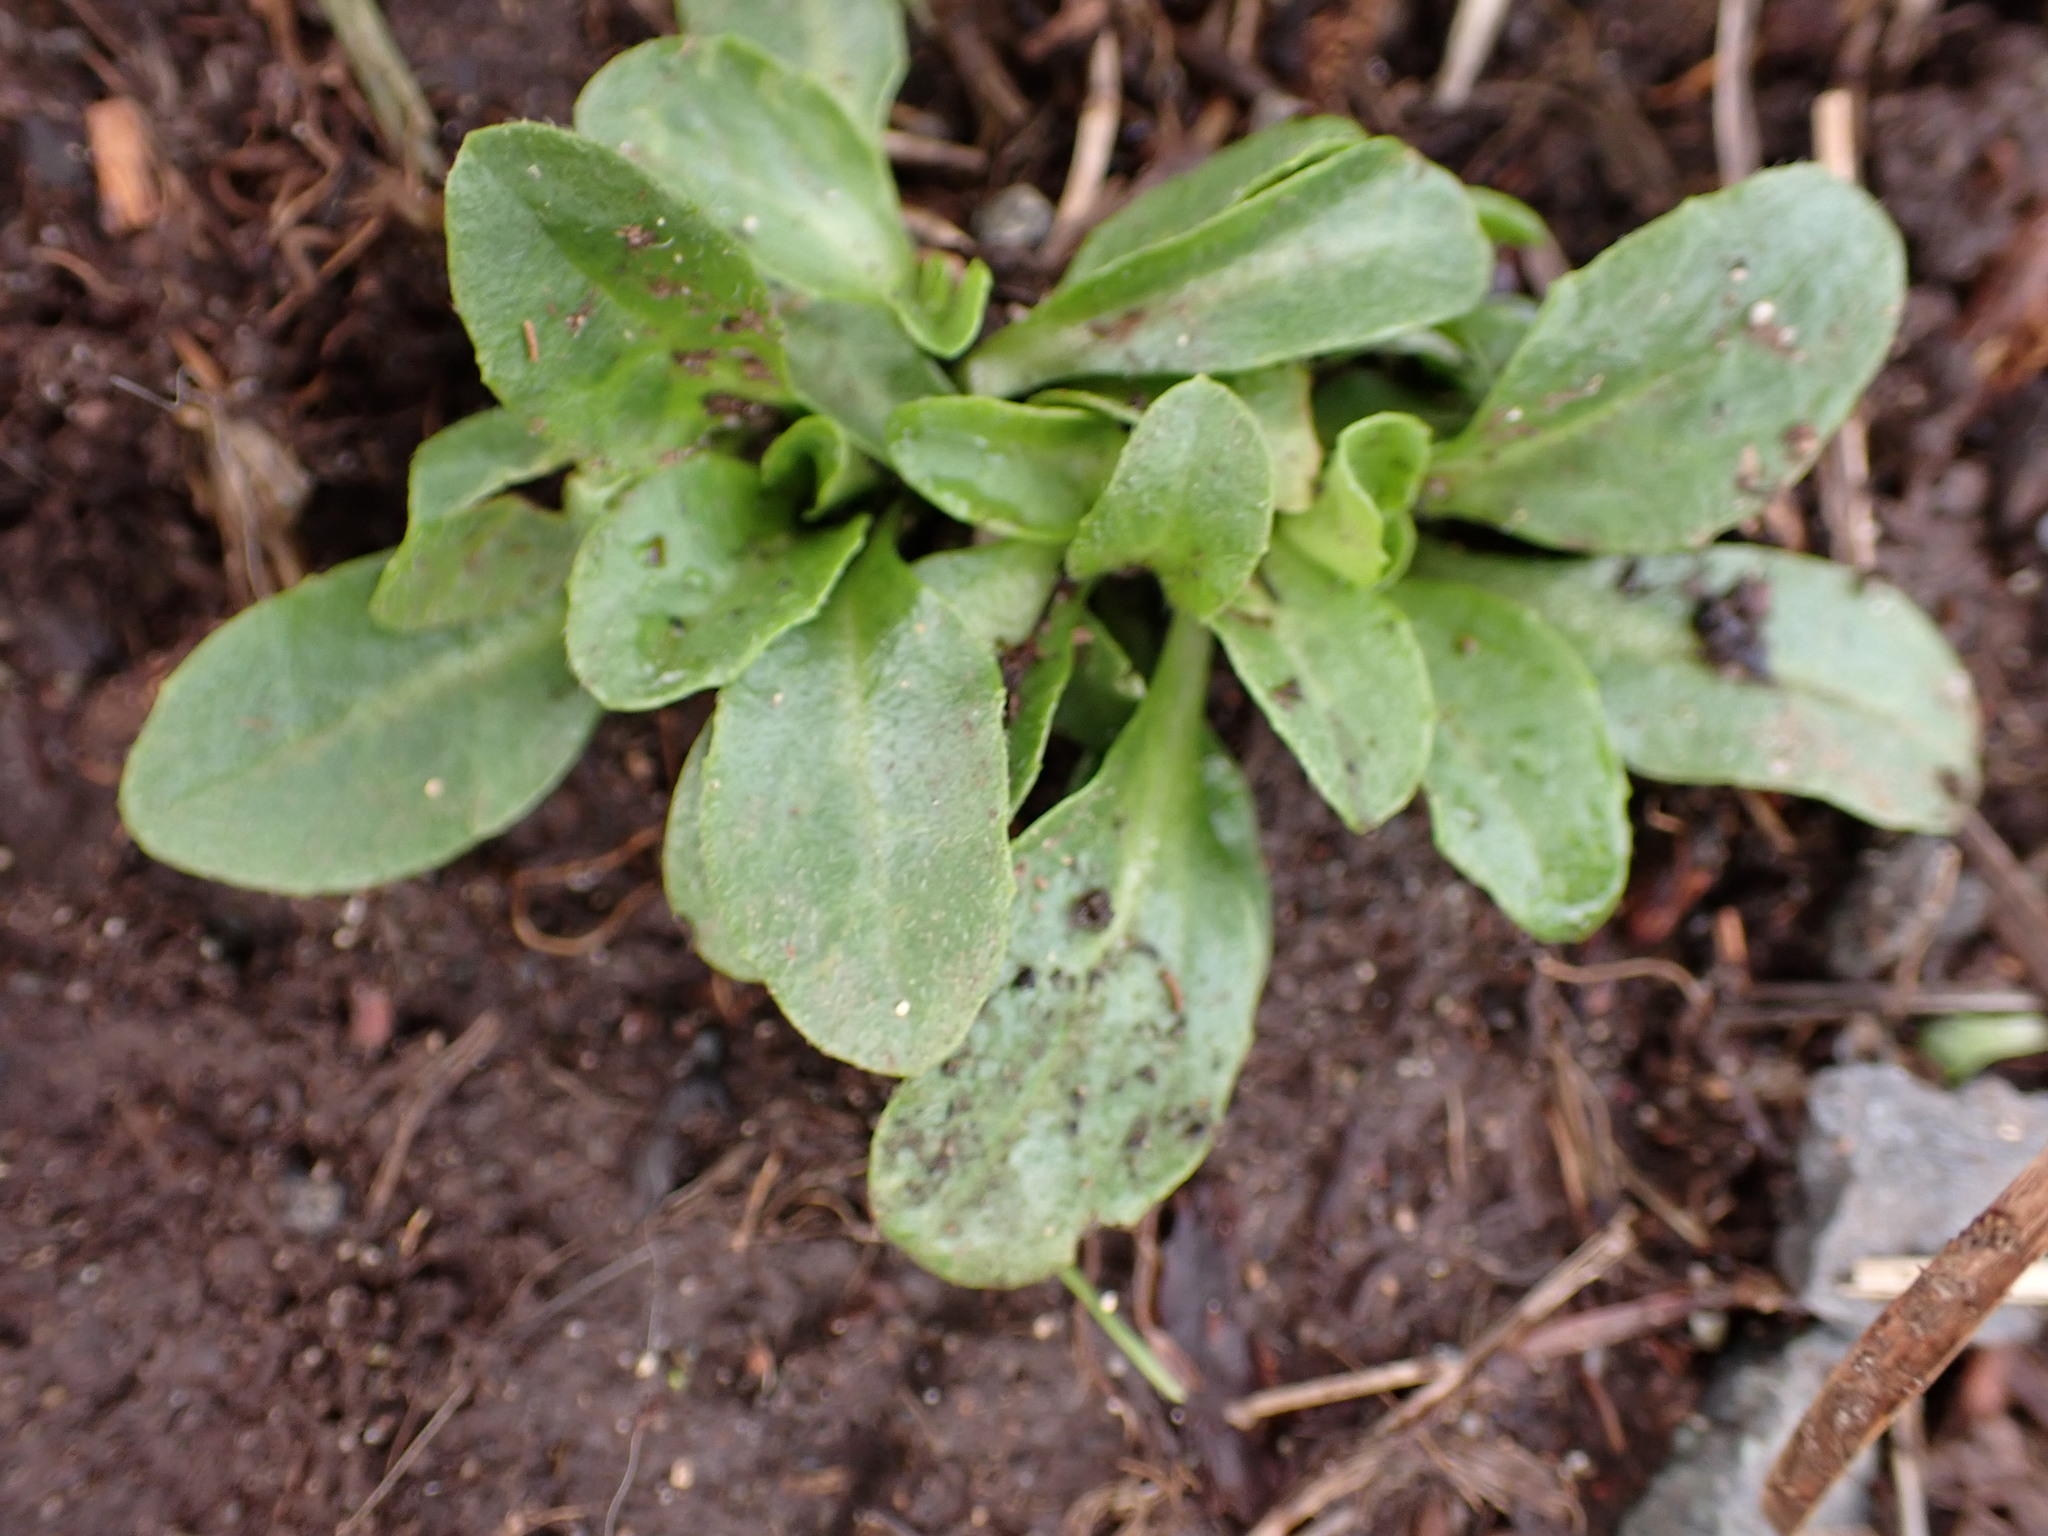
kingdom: Plantae
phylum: Tracheophyta
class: Magnoliopsida
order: Asterales
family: Asteraceae
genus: Bellis
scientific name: Bellis perennis
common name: Lawndaisy
